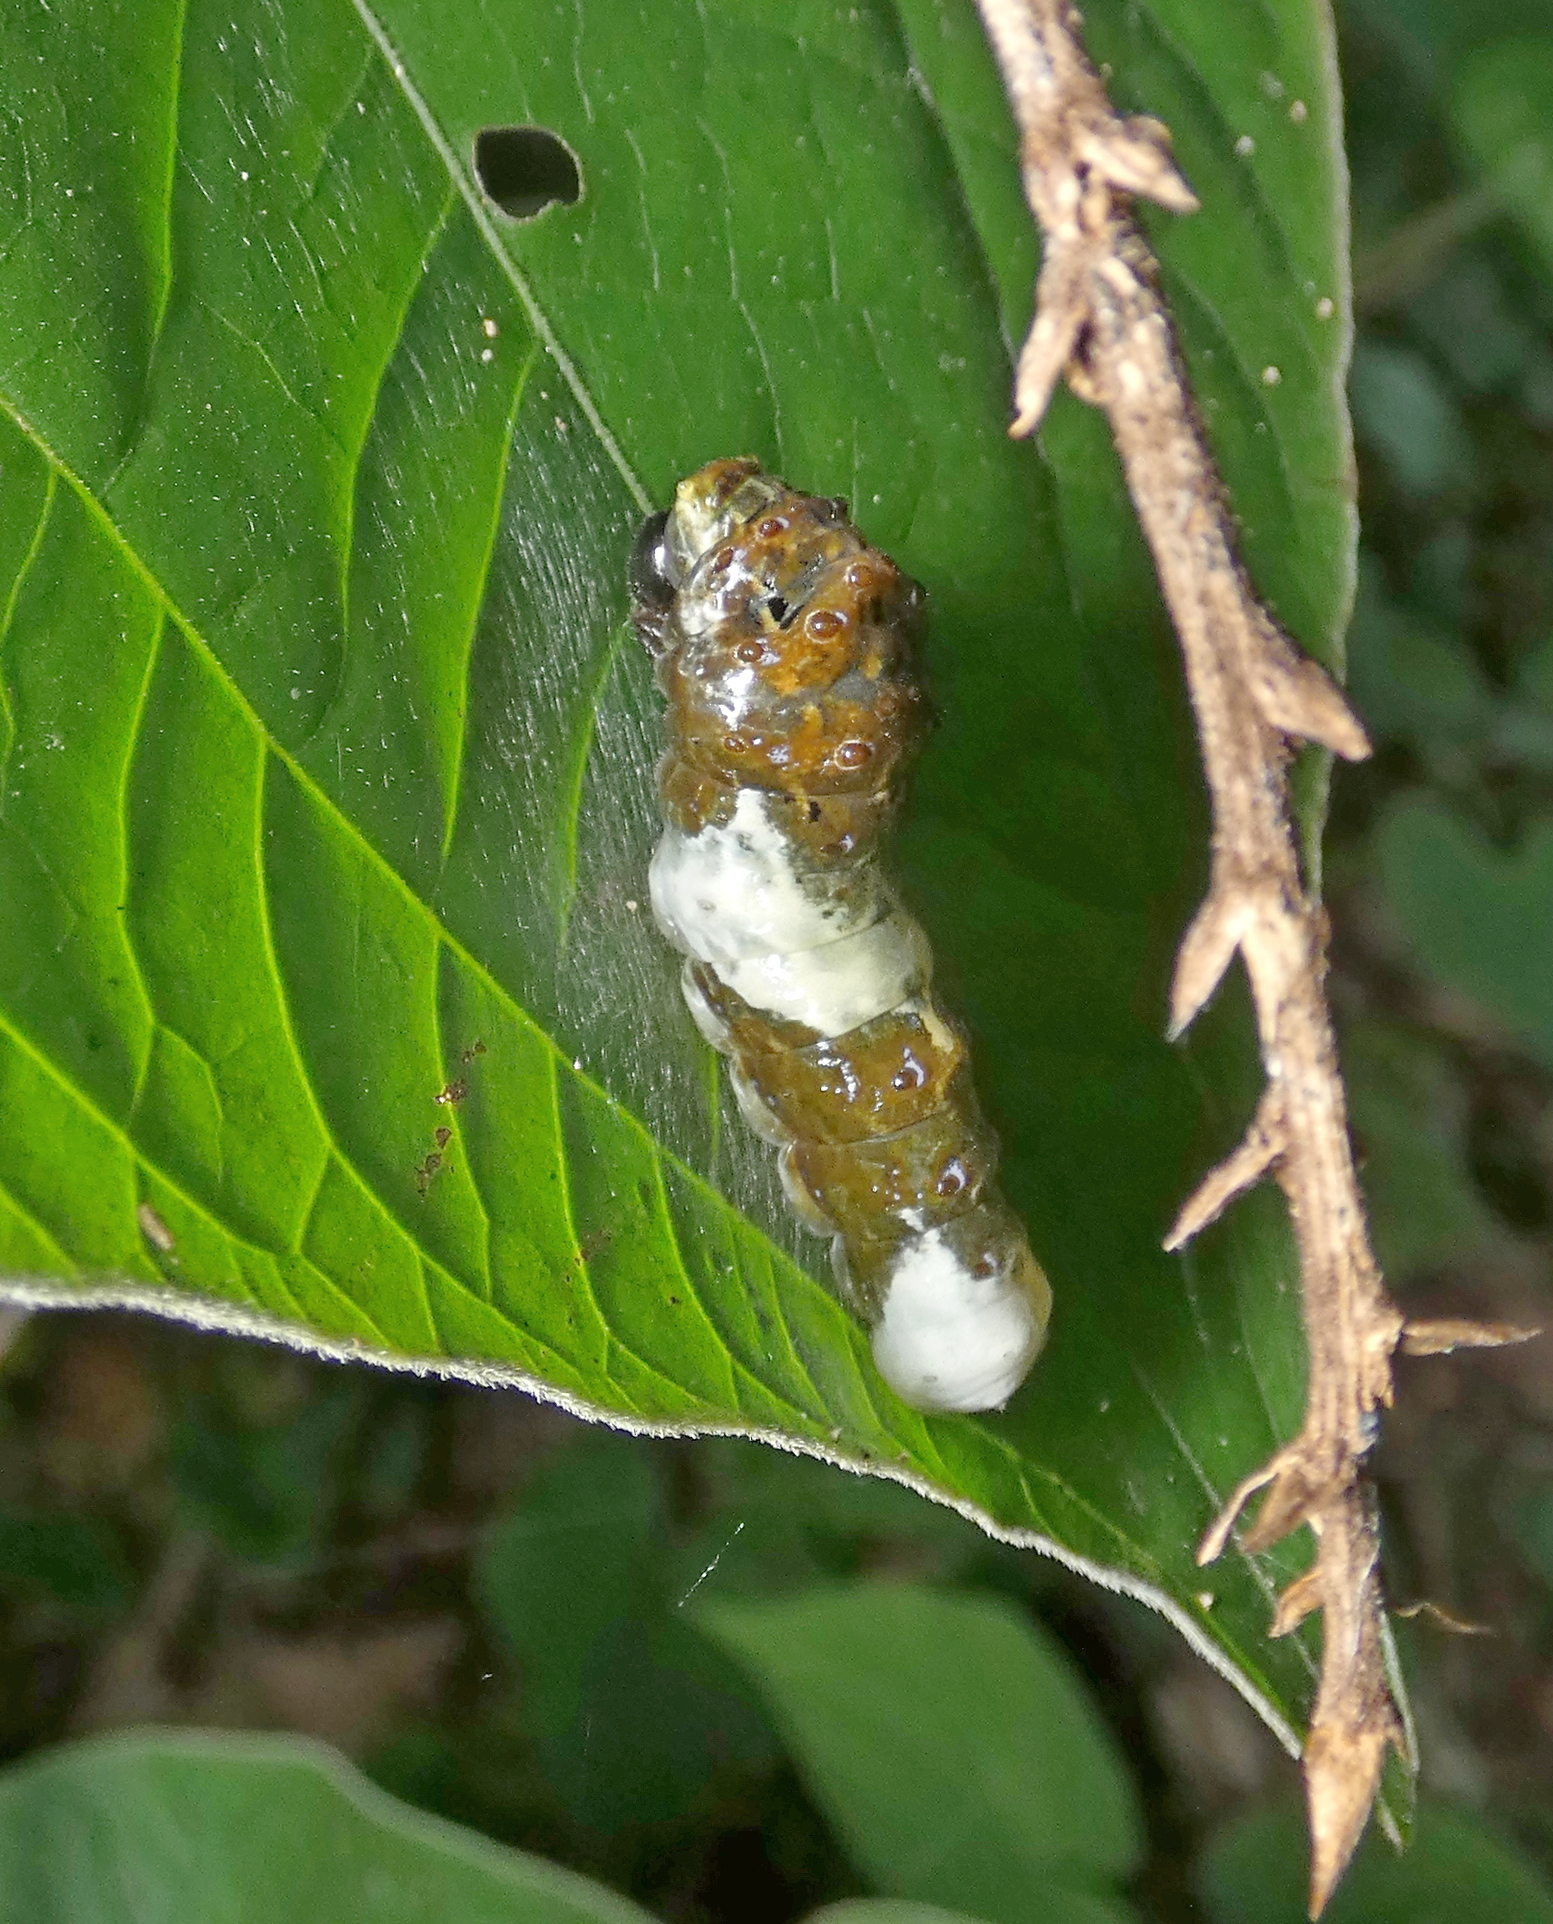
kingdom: Animalia
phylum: Arthropoda
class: Insecta
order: Lepidoptera
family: Papilionidae
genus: Papilio
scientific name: Papilio thoas
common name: King swallowtail
